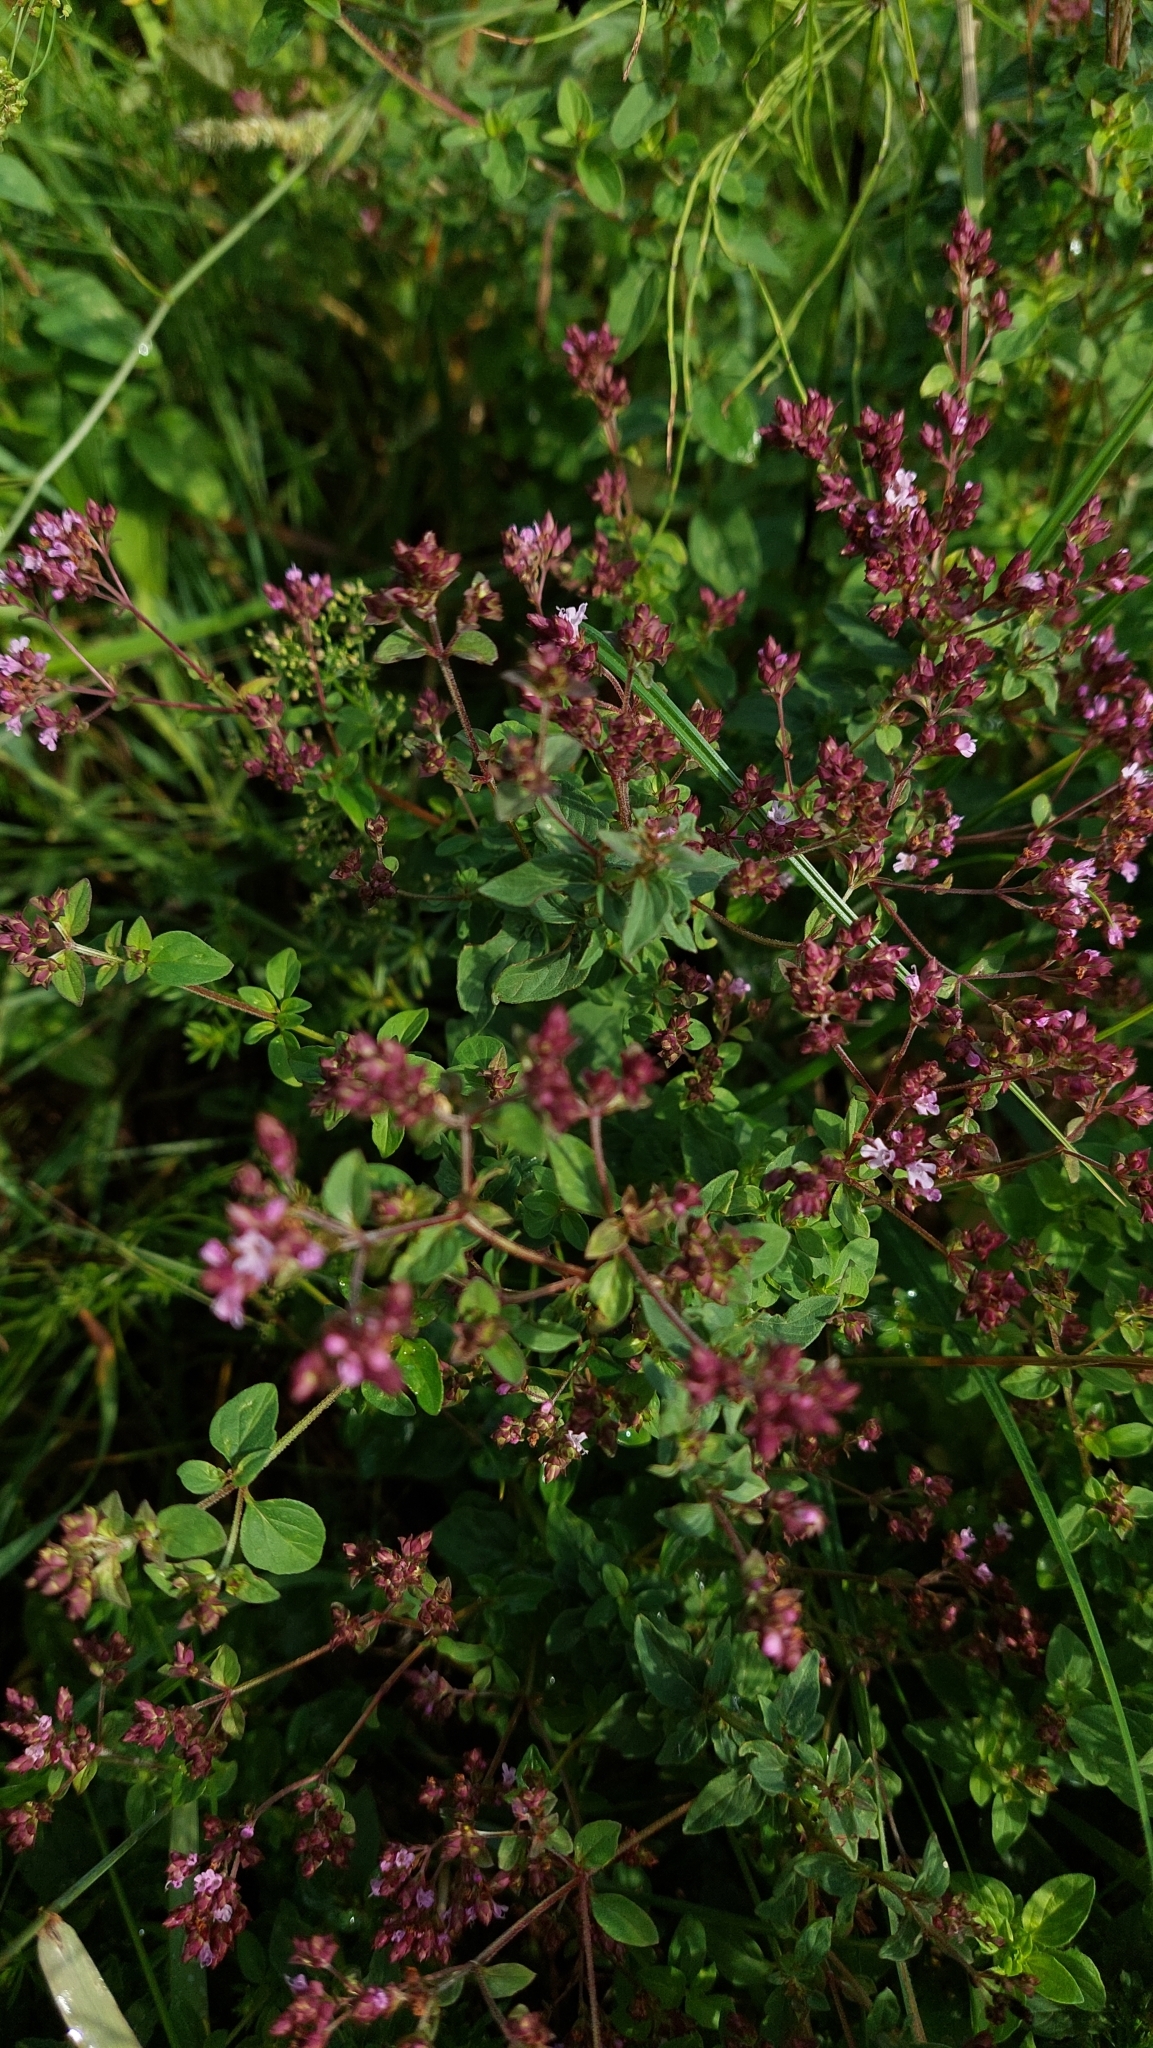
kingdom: Plantae
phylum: Tracheophyta
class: Magnoliopsida
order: Lamiales
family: Lamiaceae
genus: Origanum
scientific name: Origanum vulgare
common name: Wild marjoram
